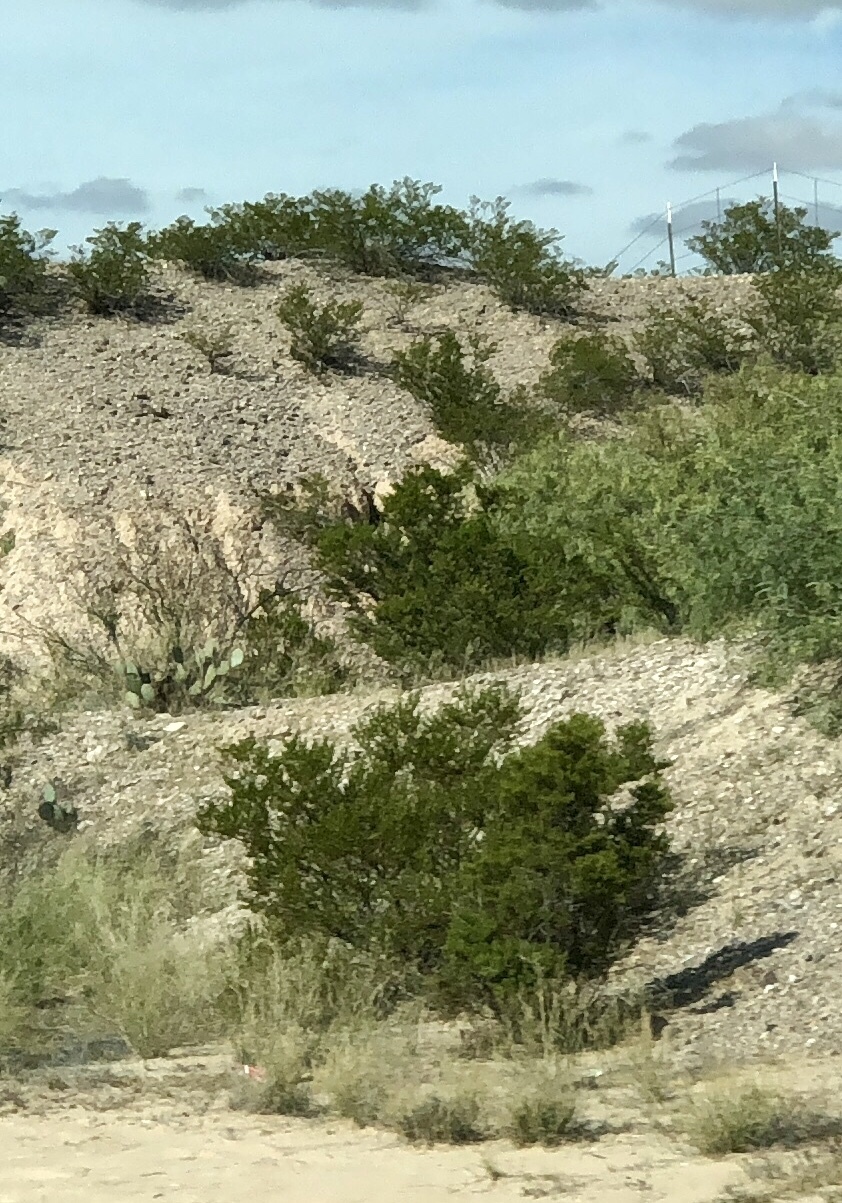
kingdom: Plantae
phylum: Tracheophyta
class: Magnoliopsida
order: Zygophyllales
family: Zygophyllaceae
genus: Larrea
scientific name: Larrea tridentata
